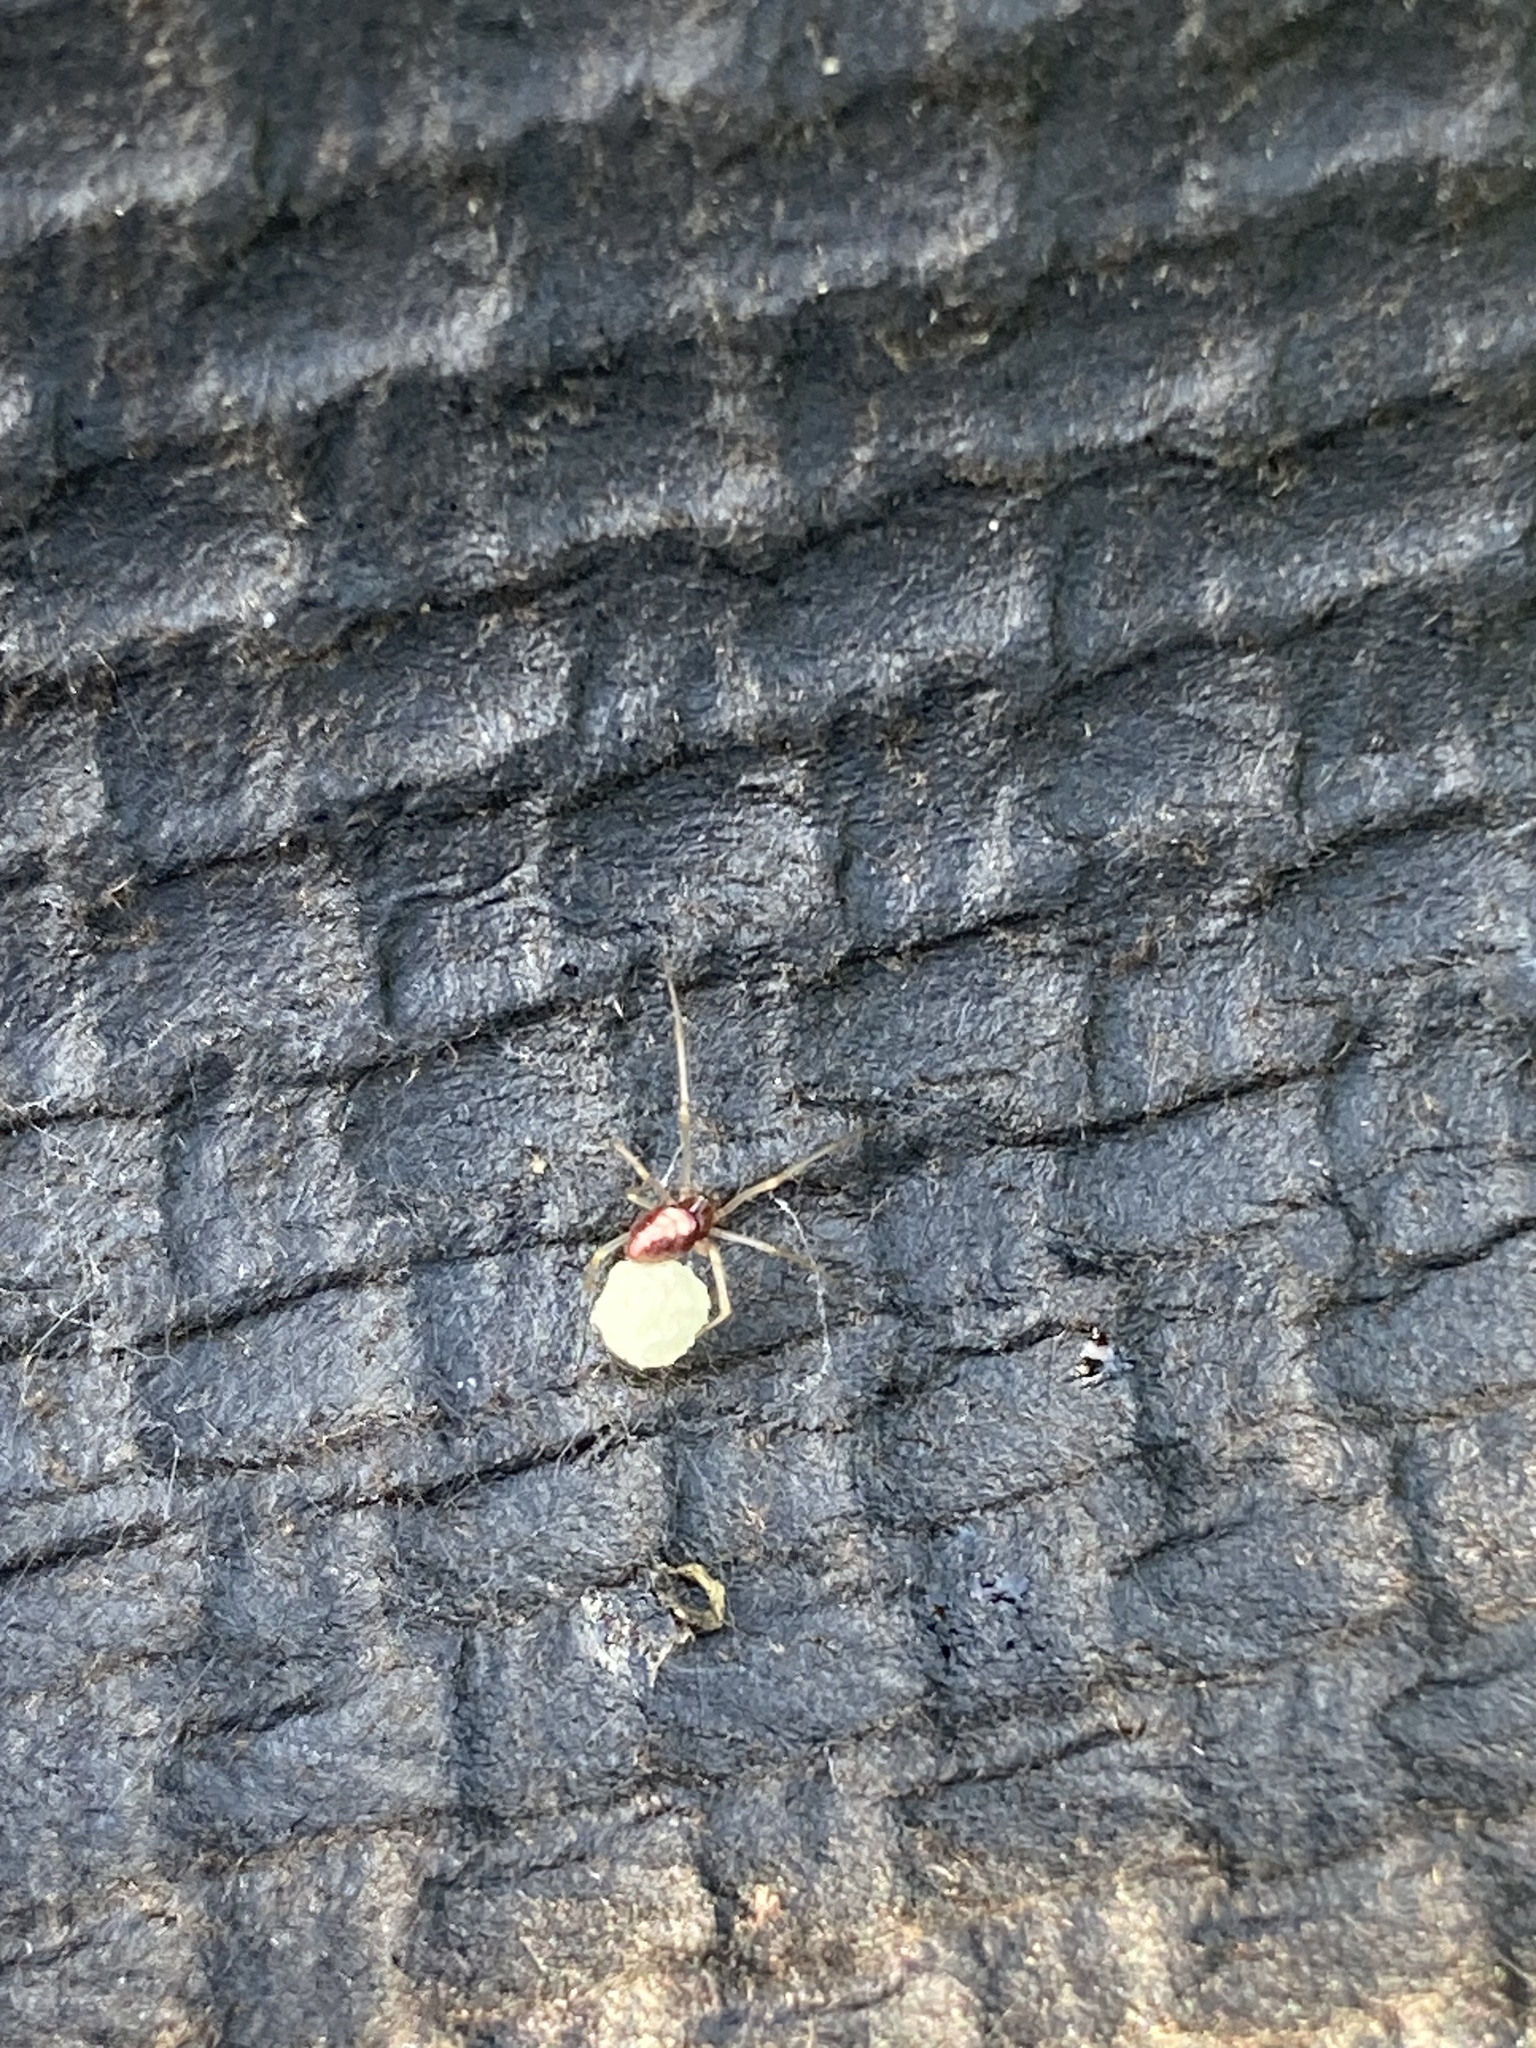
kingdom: Animalia
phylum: Arthropoda
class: Arachnida
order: Araneae
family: Theridiidae
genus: Neottiura
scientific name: Neottiura bimaculata
